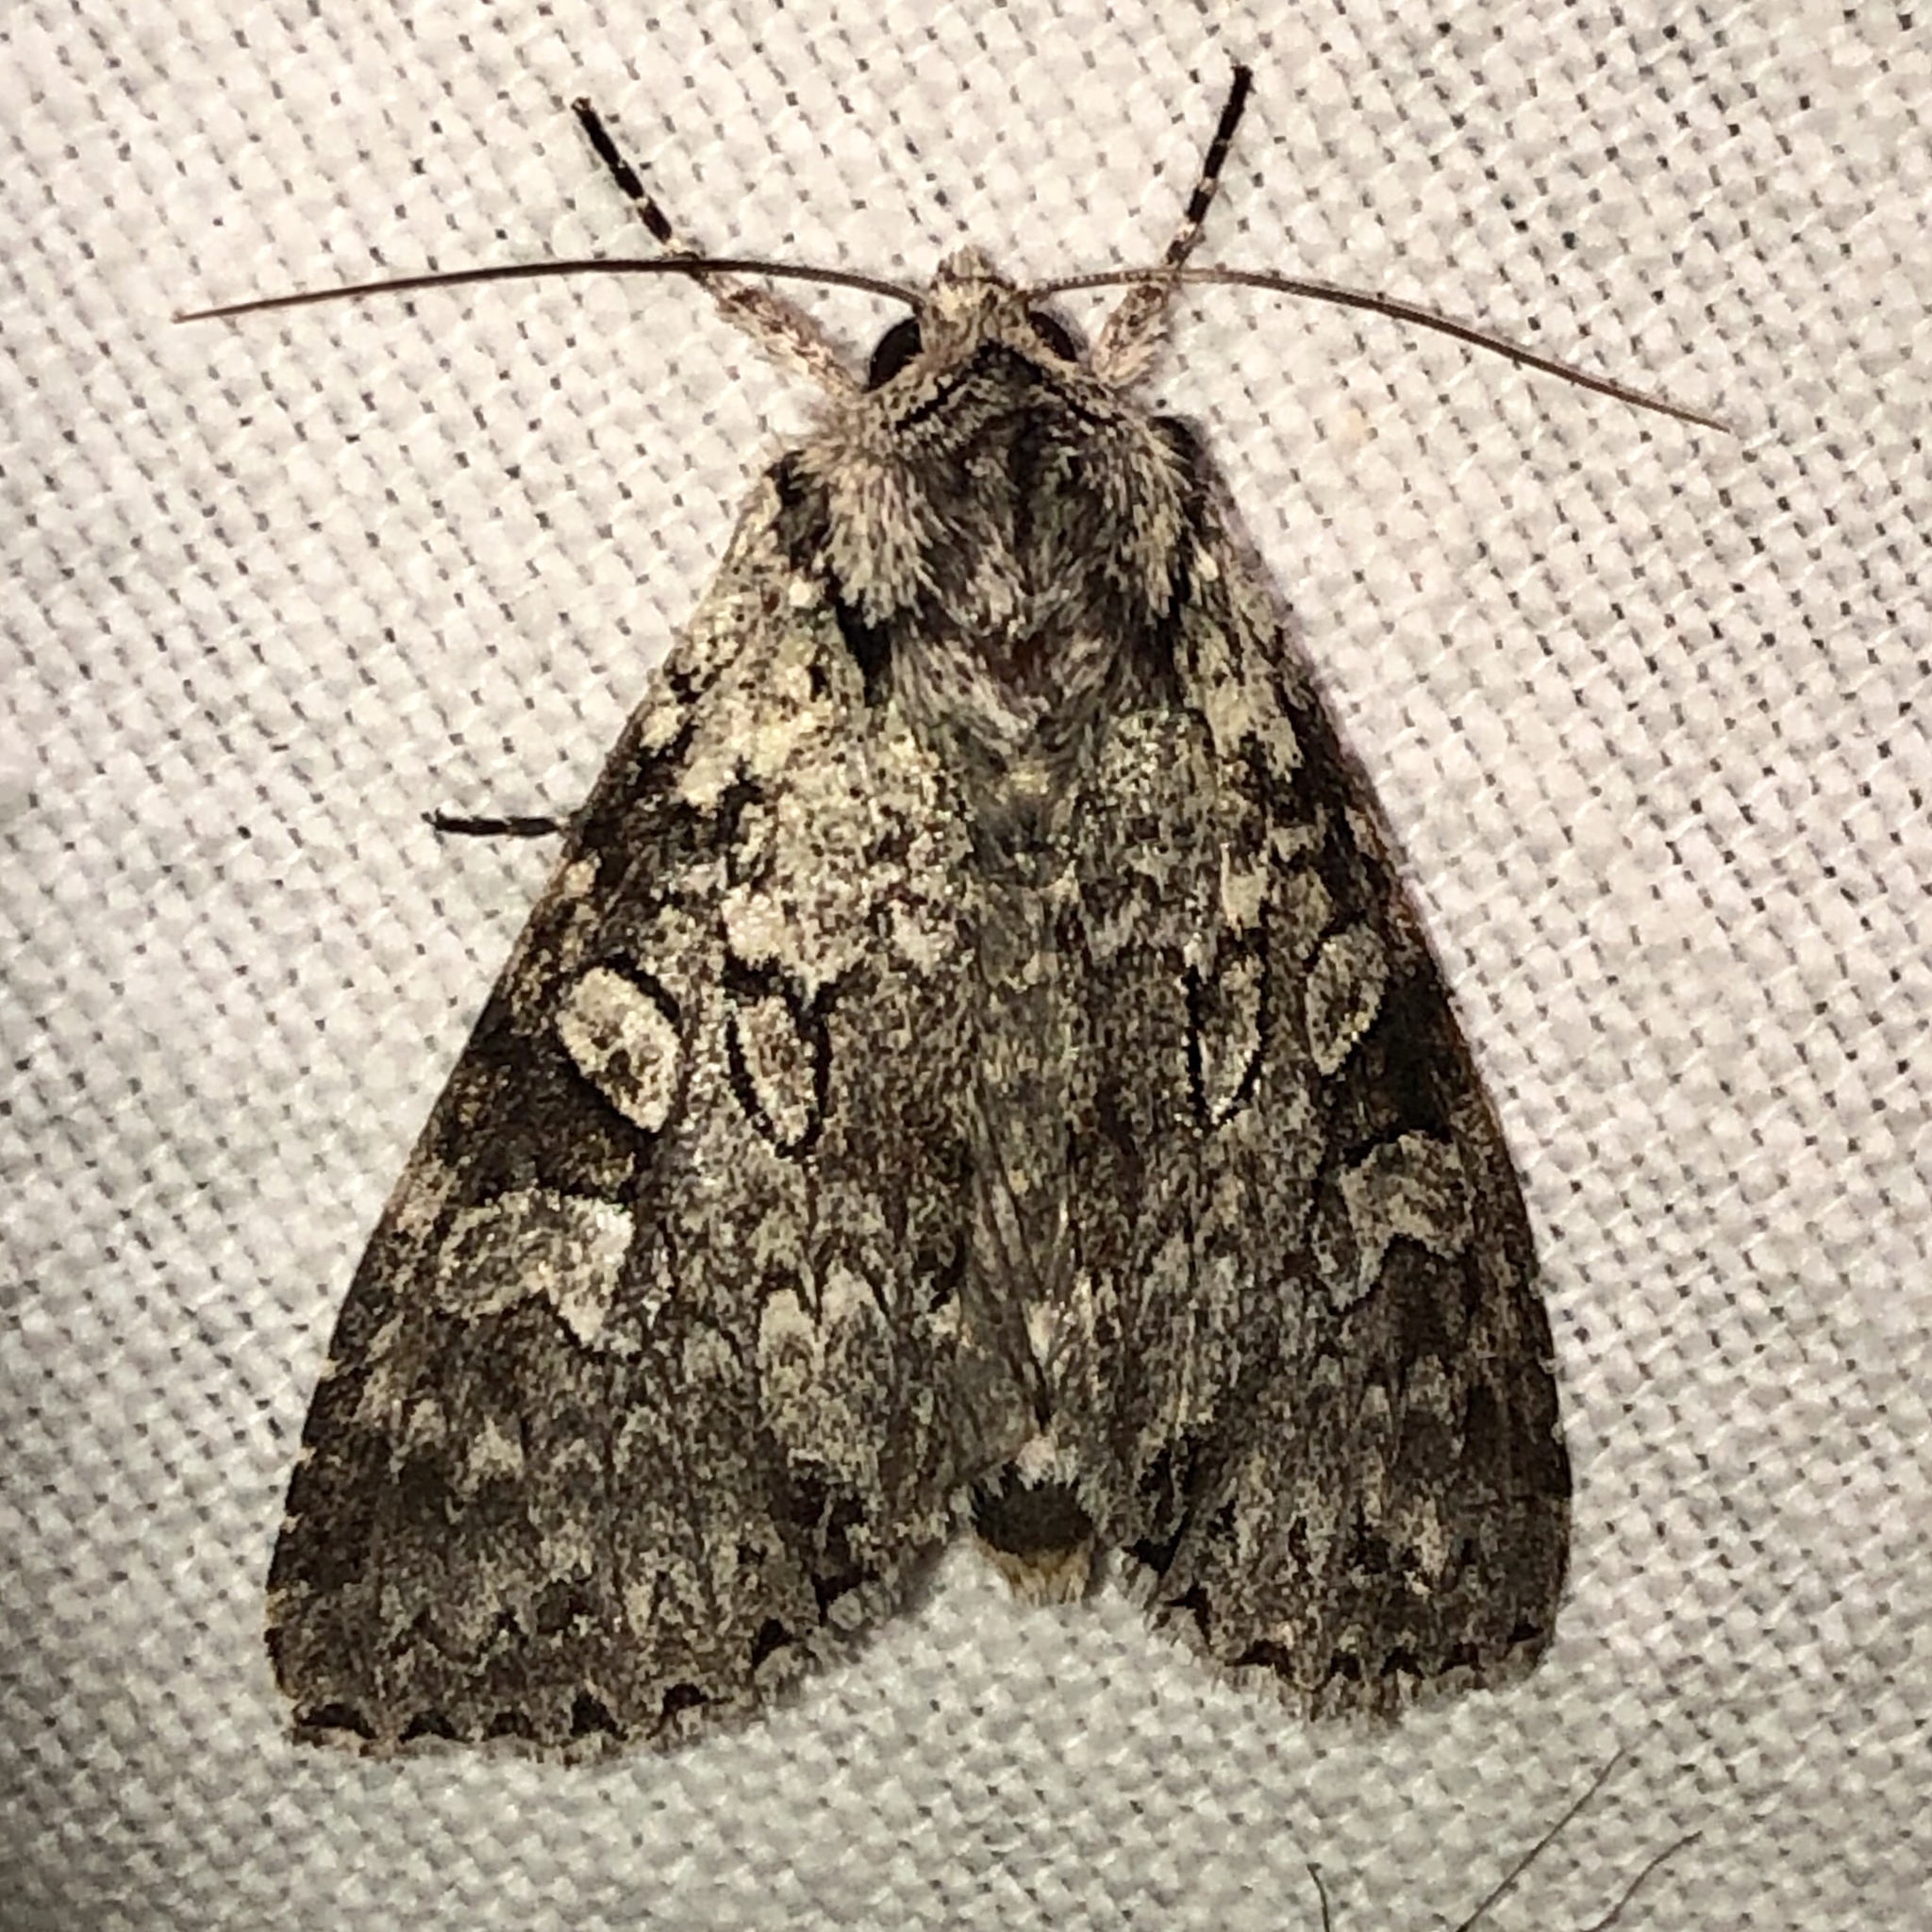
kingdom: Animalia
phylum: Arthropoda
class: Insecta
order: Lepidoptera
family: Noctuidae
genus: Polia
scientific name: Polia nimbosa
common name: Stormy arches
